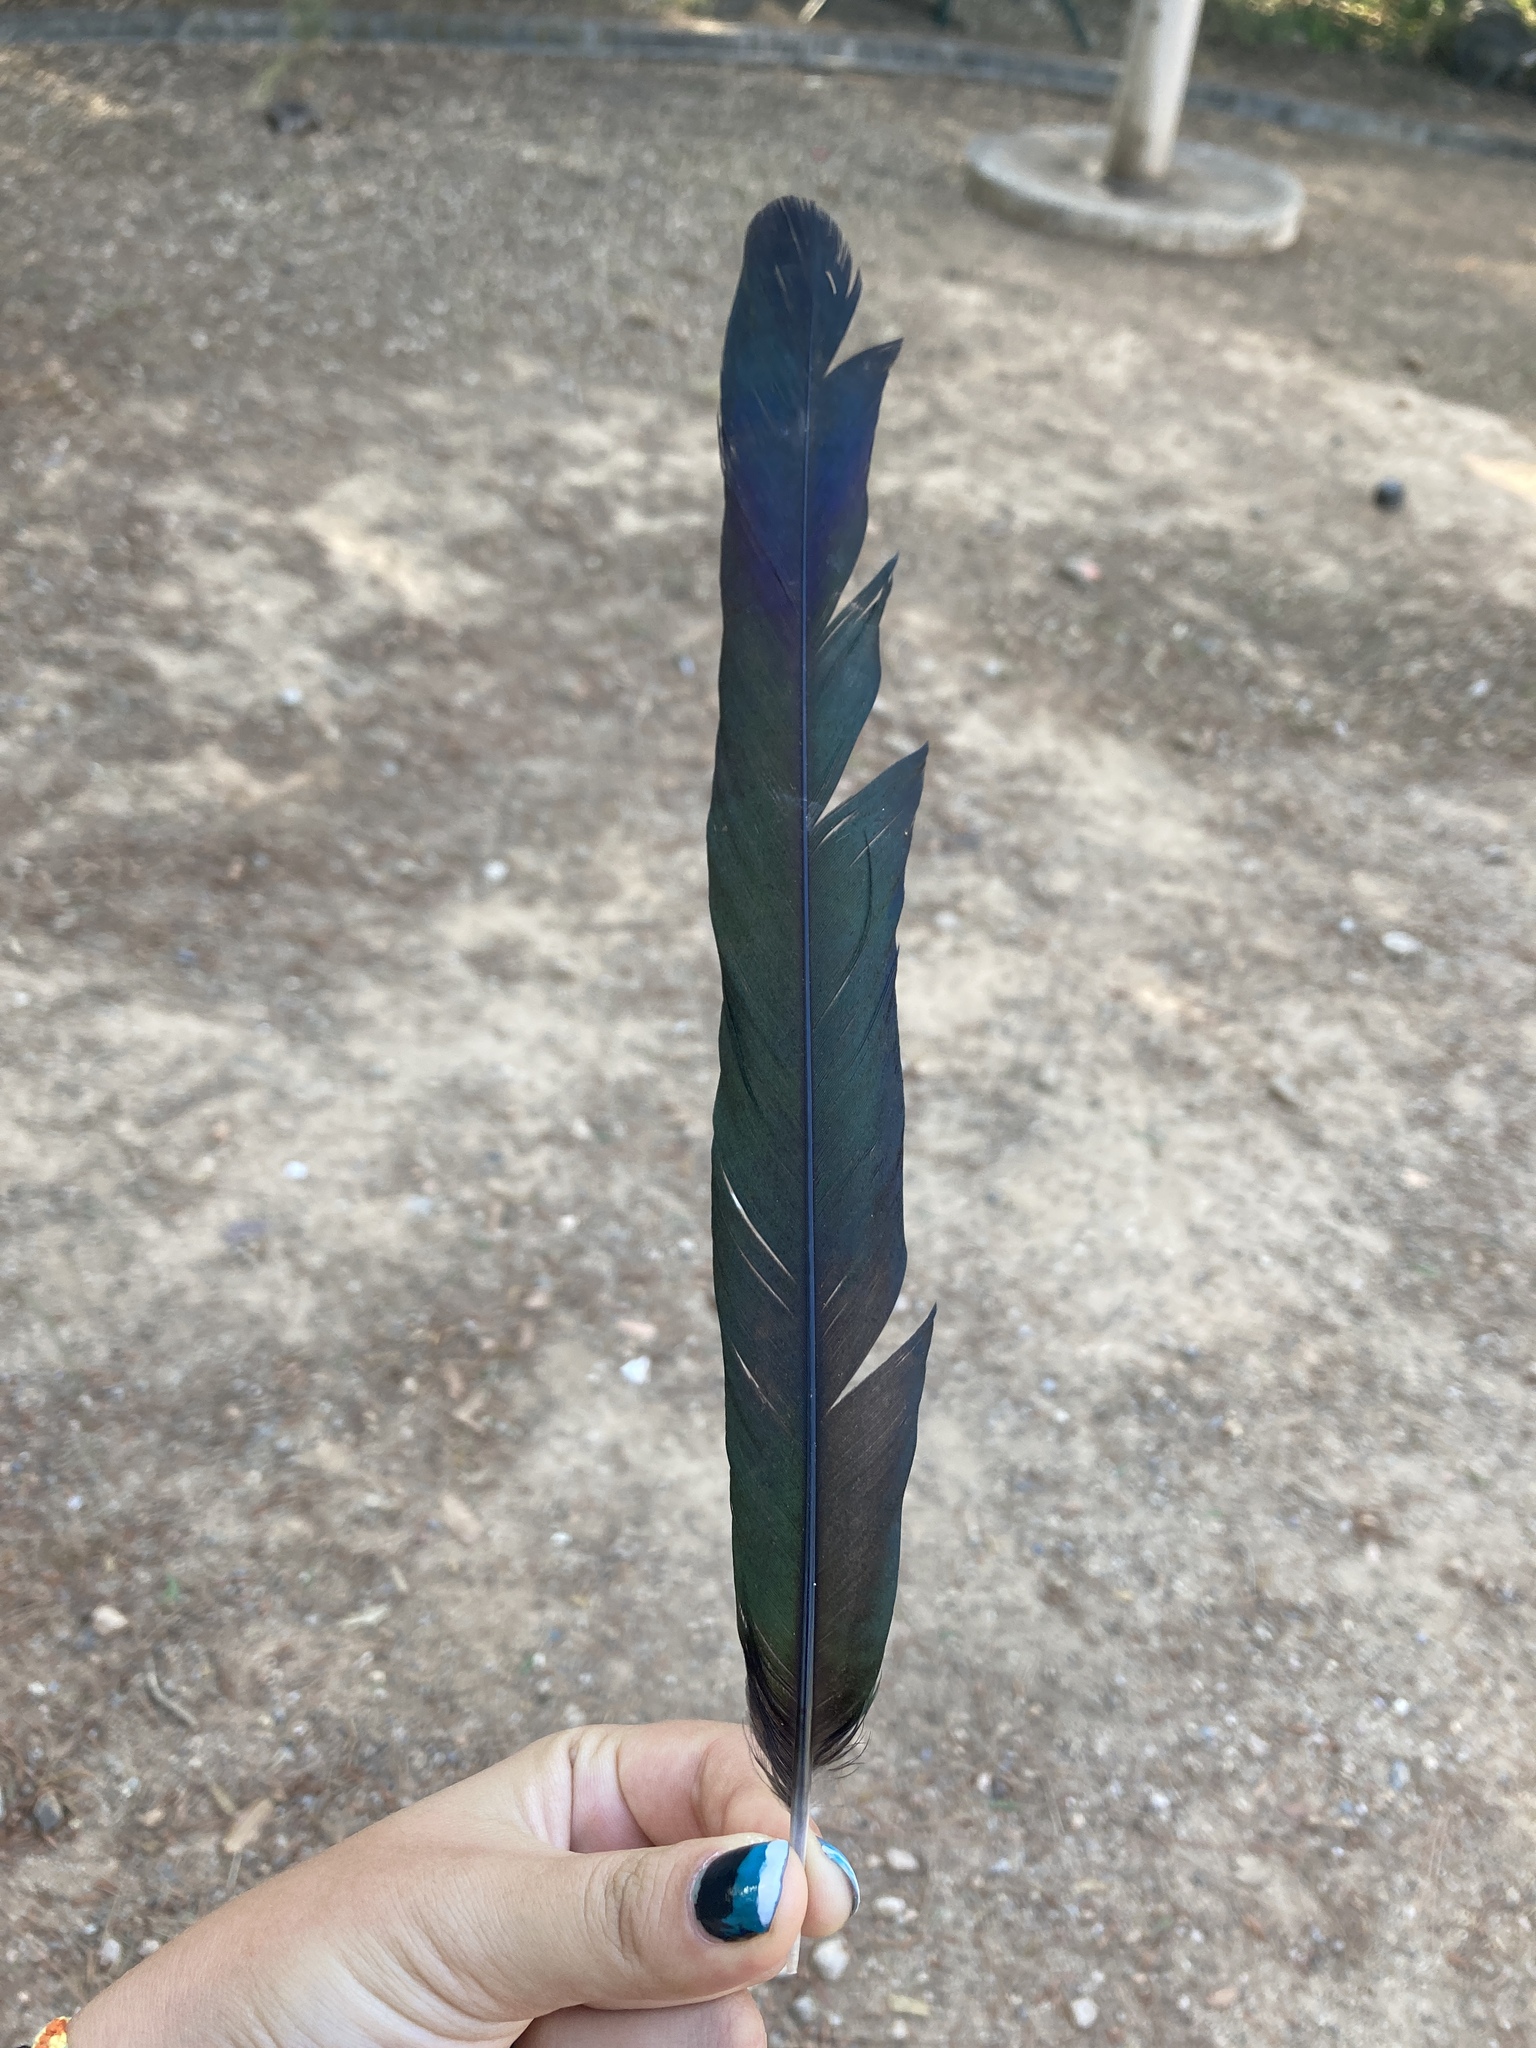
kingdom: Animalia
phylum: Chordata
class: Aves
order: Passeriformes
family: Corvidae
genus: Pica
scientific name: Pica pica
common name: Eurasian magpie
